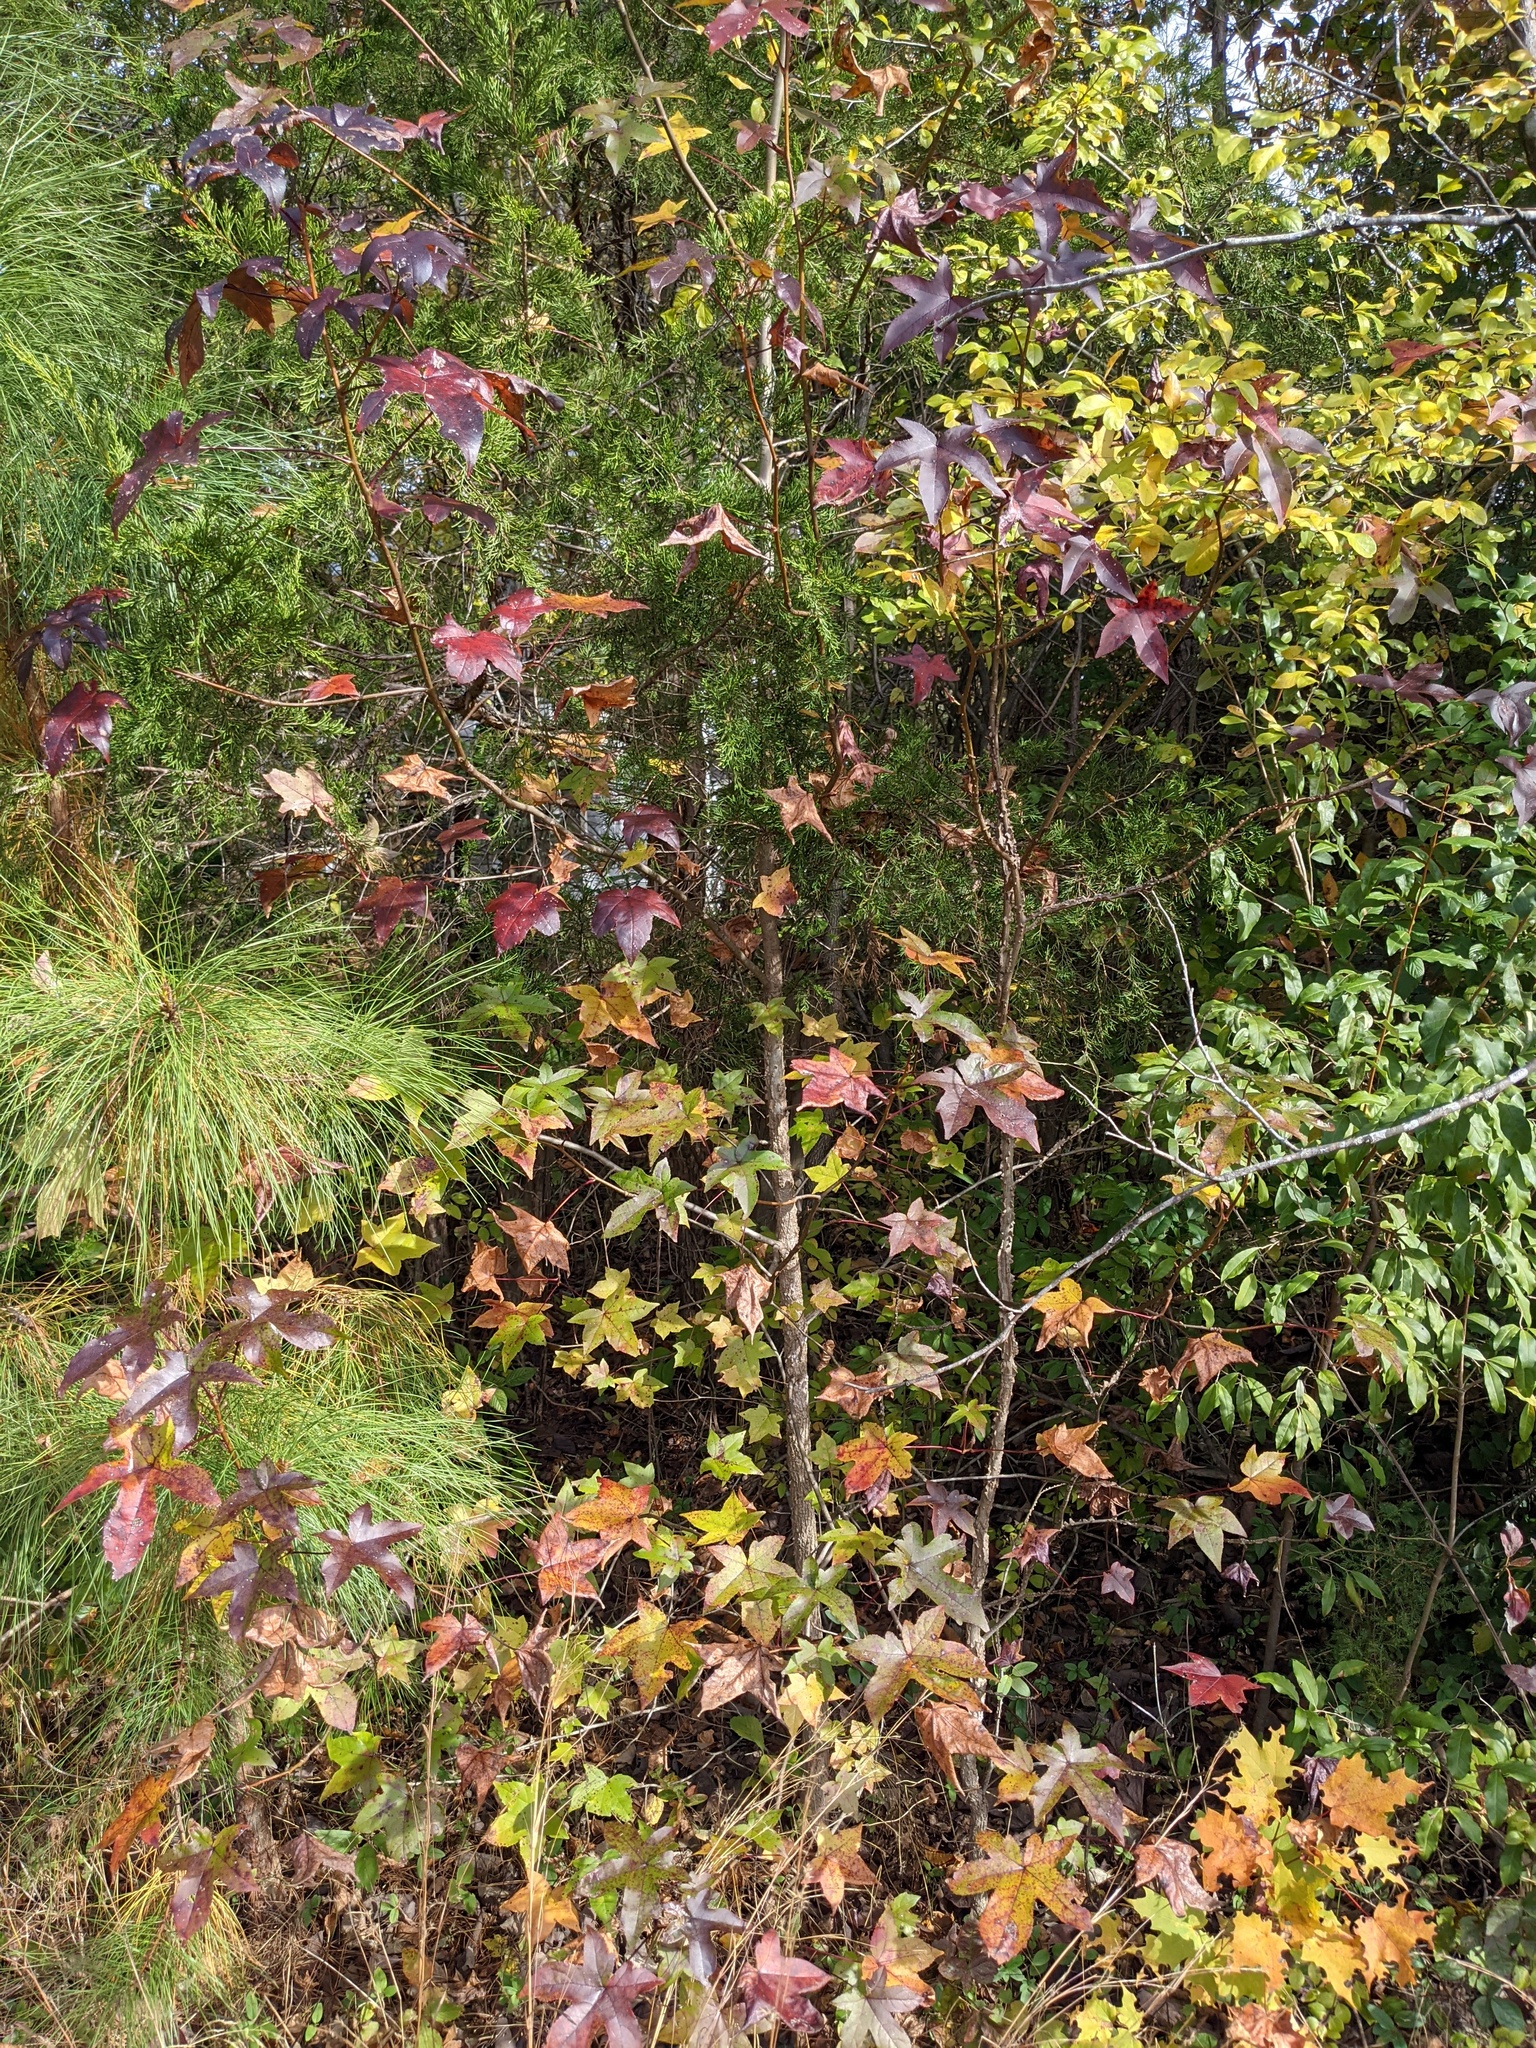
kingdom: Plantae
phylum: Tracheophyta
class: Magnoliopsida
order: Saxifragales
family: Altingiaceae
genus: Liquidambar
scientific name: Liquidambar styraciflua
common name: Sweet gum
